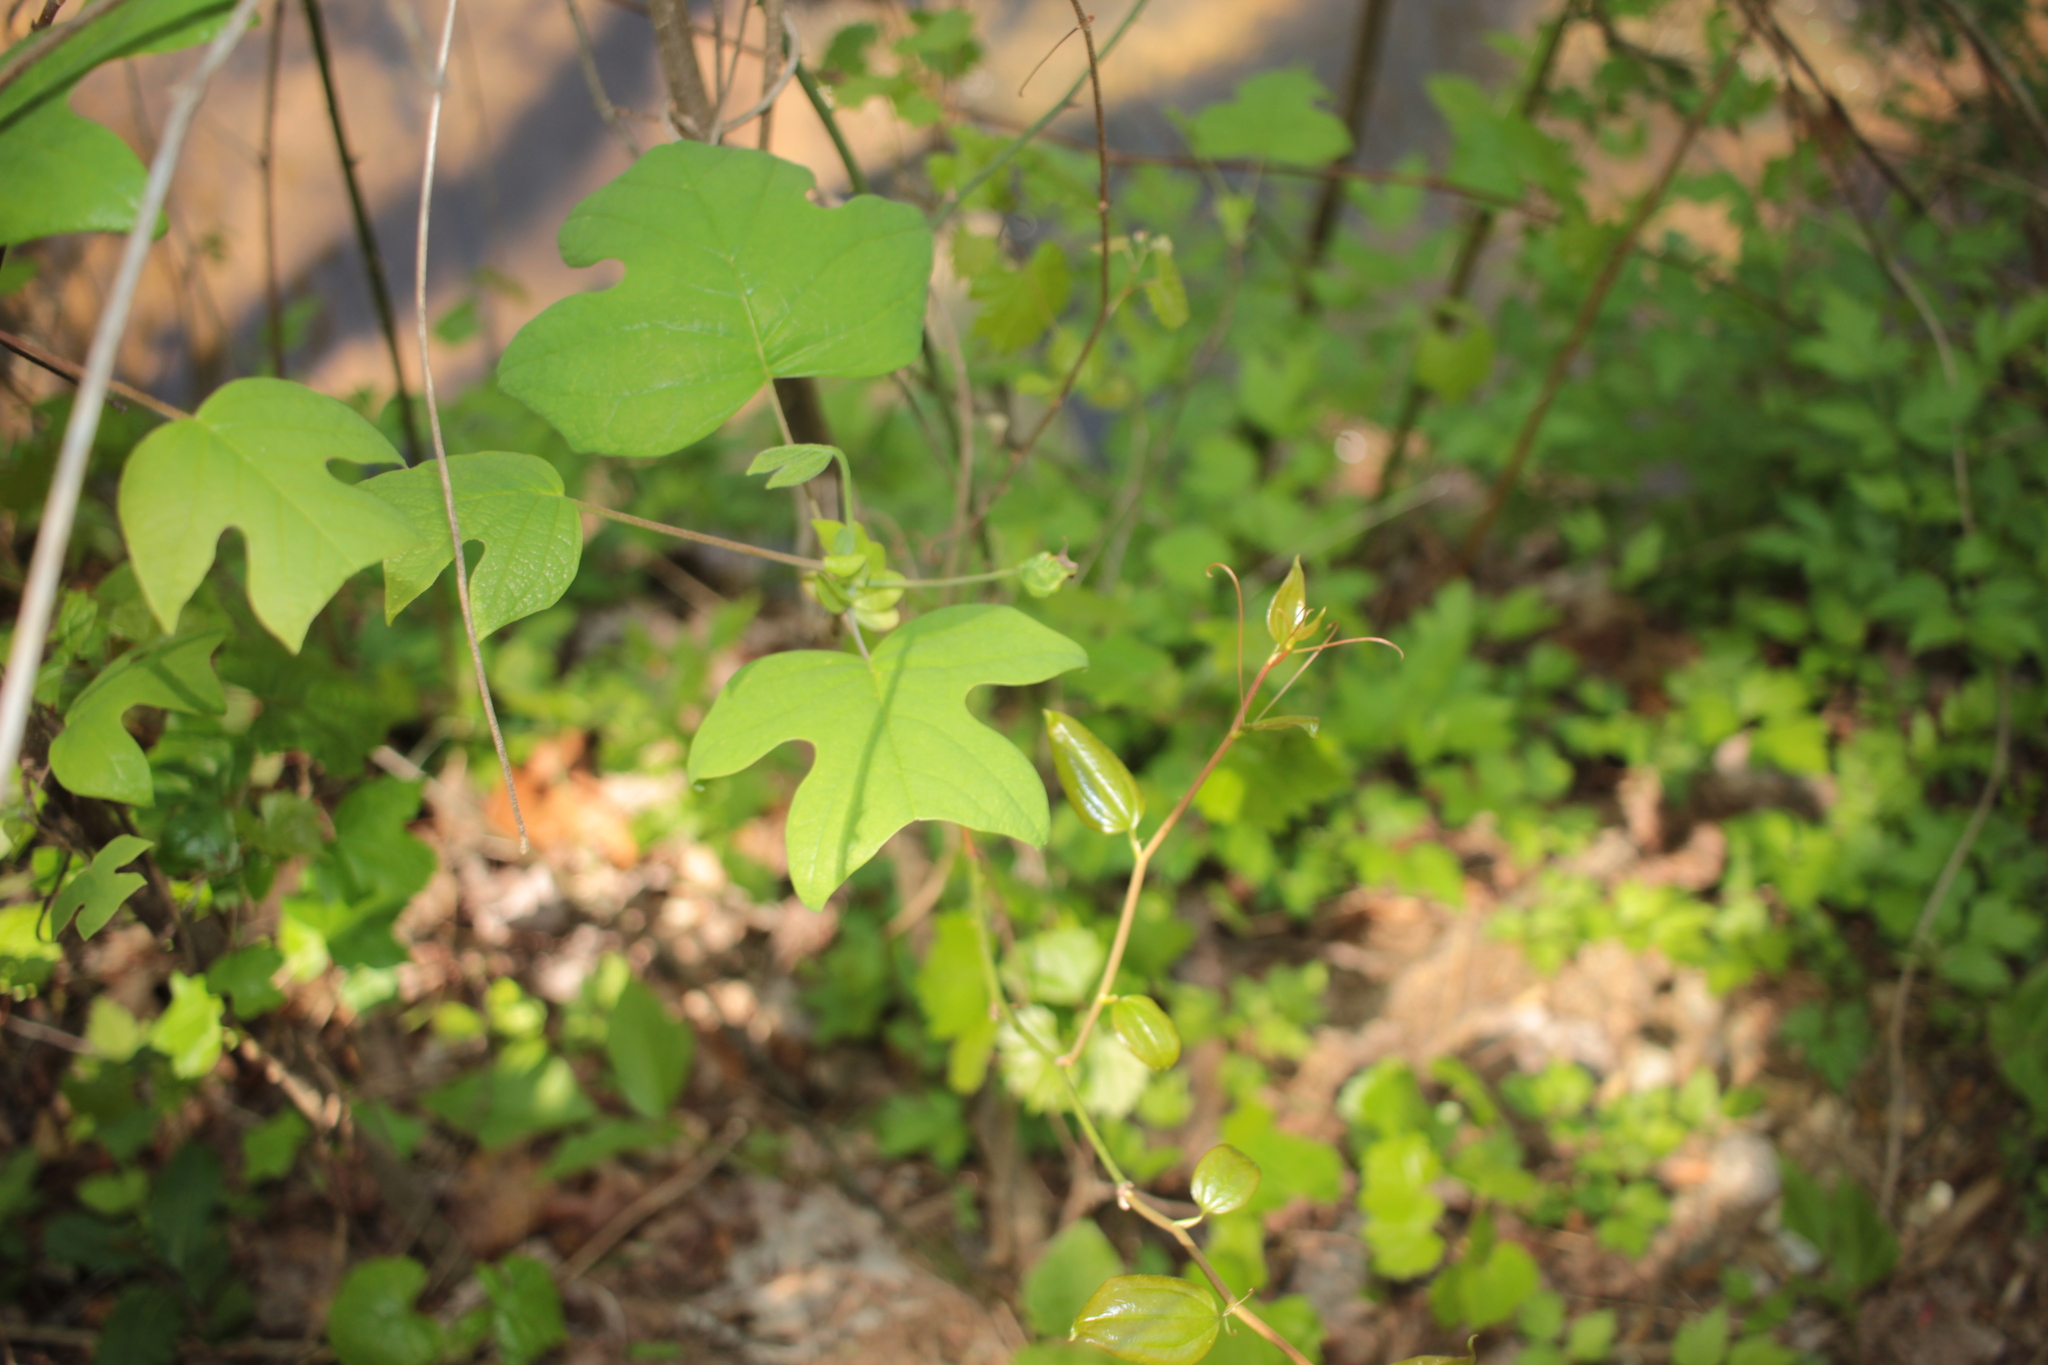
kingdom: Plantae
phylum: Tracheophyta
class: Magnoliopsida
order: Magnoliales
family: Magnoliaceae
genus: Liriodendron
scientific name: Liriodendron tulipifera
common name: Tulip tree
